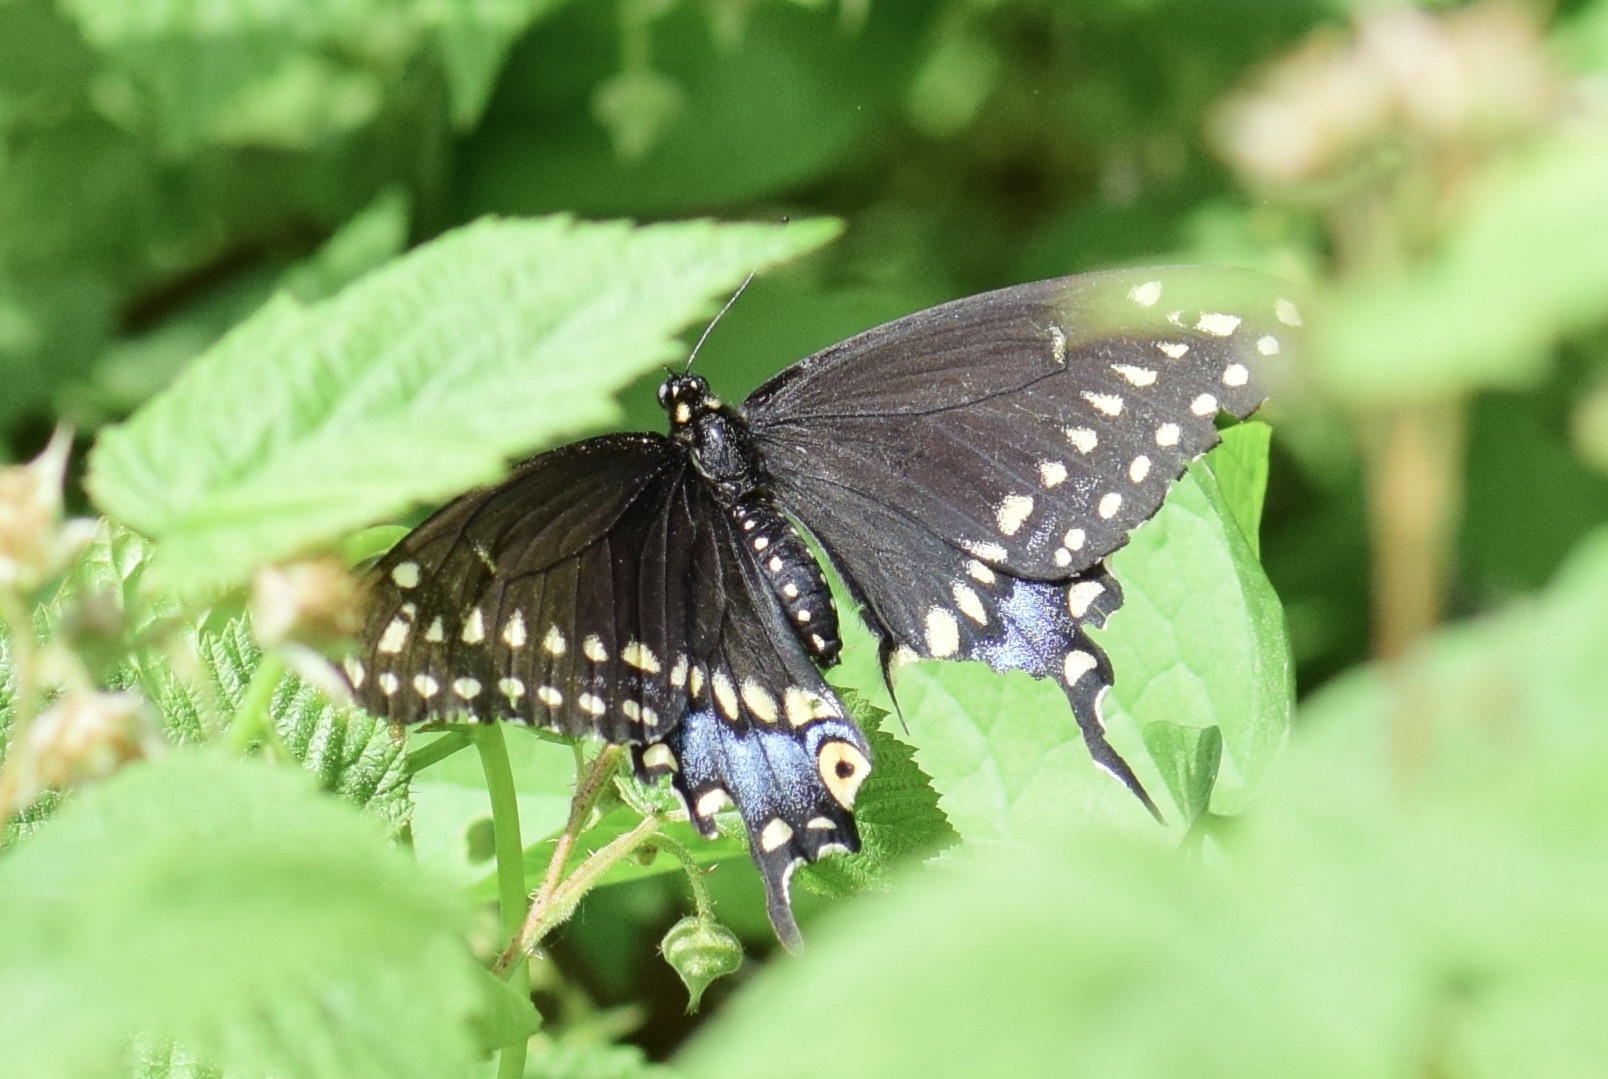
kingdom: Animalia
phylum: Arthropoda
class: Insecta
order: Lepidoptera
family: Papilionidae
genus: Papilio
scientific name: Papilio polyxenes
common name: Black swallowtail
